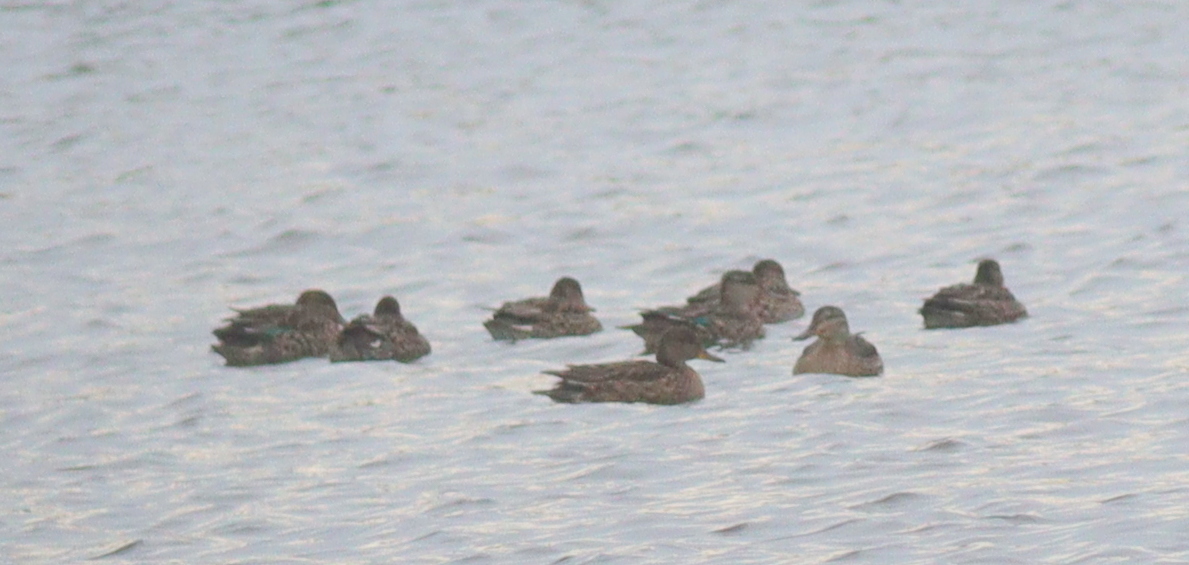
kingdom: Animalia
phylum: Chordata
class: Aves
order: Anseriformes
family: Anatidae
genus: Anas
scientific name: Anas crecca
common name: Eurasian teal
